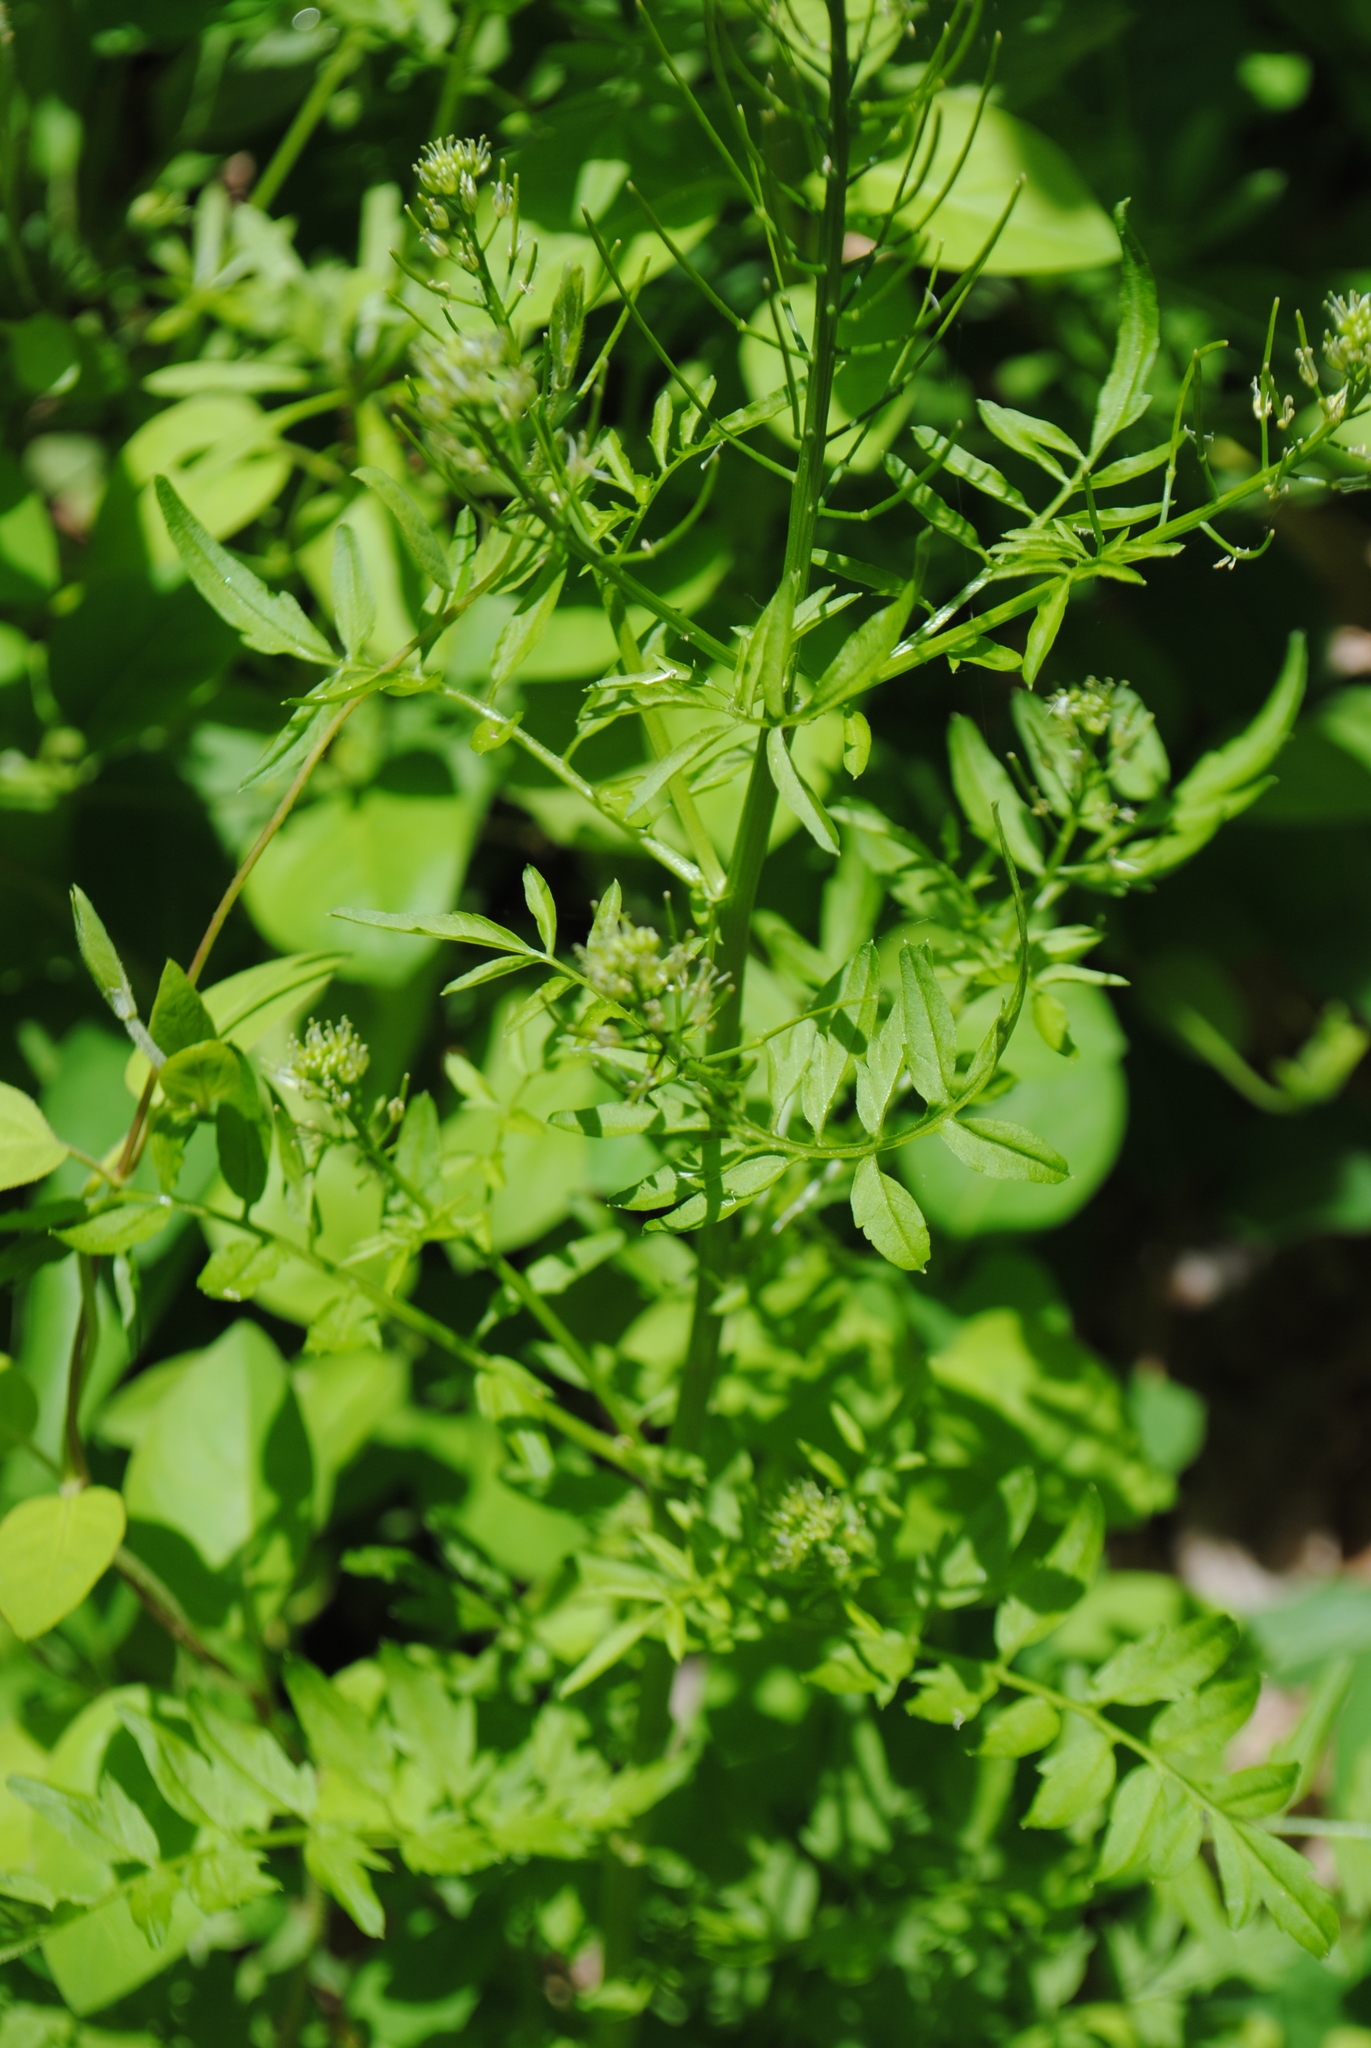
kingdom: Plantae
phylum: Tracheophyta
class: Magnoliopsida
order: Brassicales
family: Brassicaceae
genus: Cardamine
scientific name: Cardamine impatiens
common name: Narrow-leaved bitter-cress
